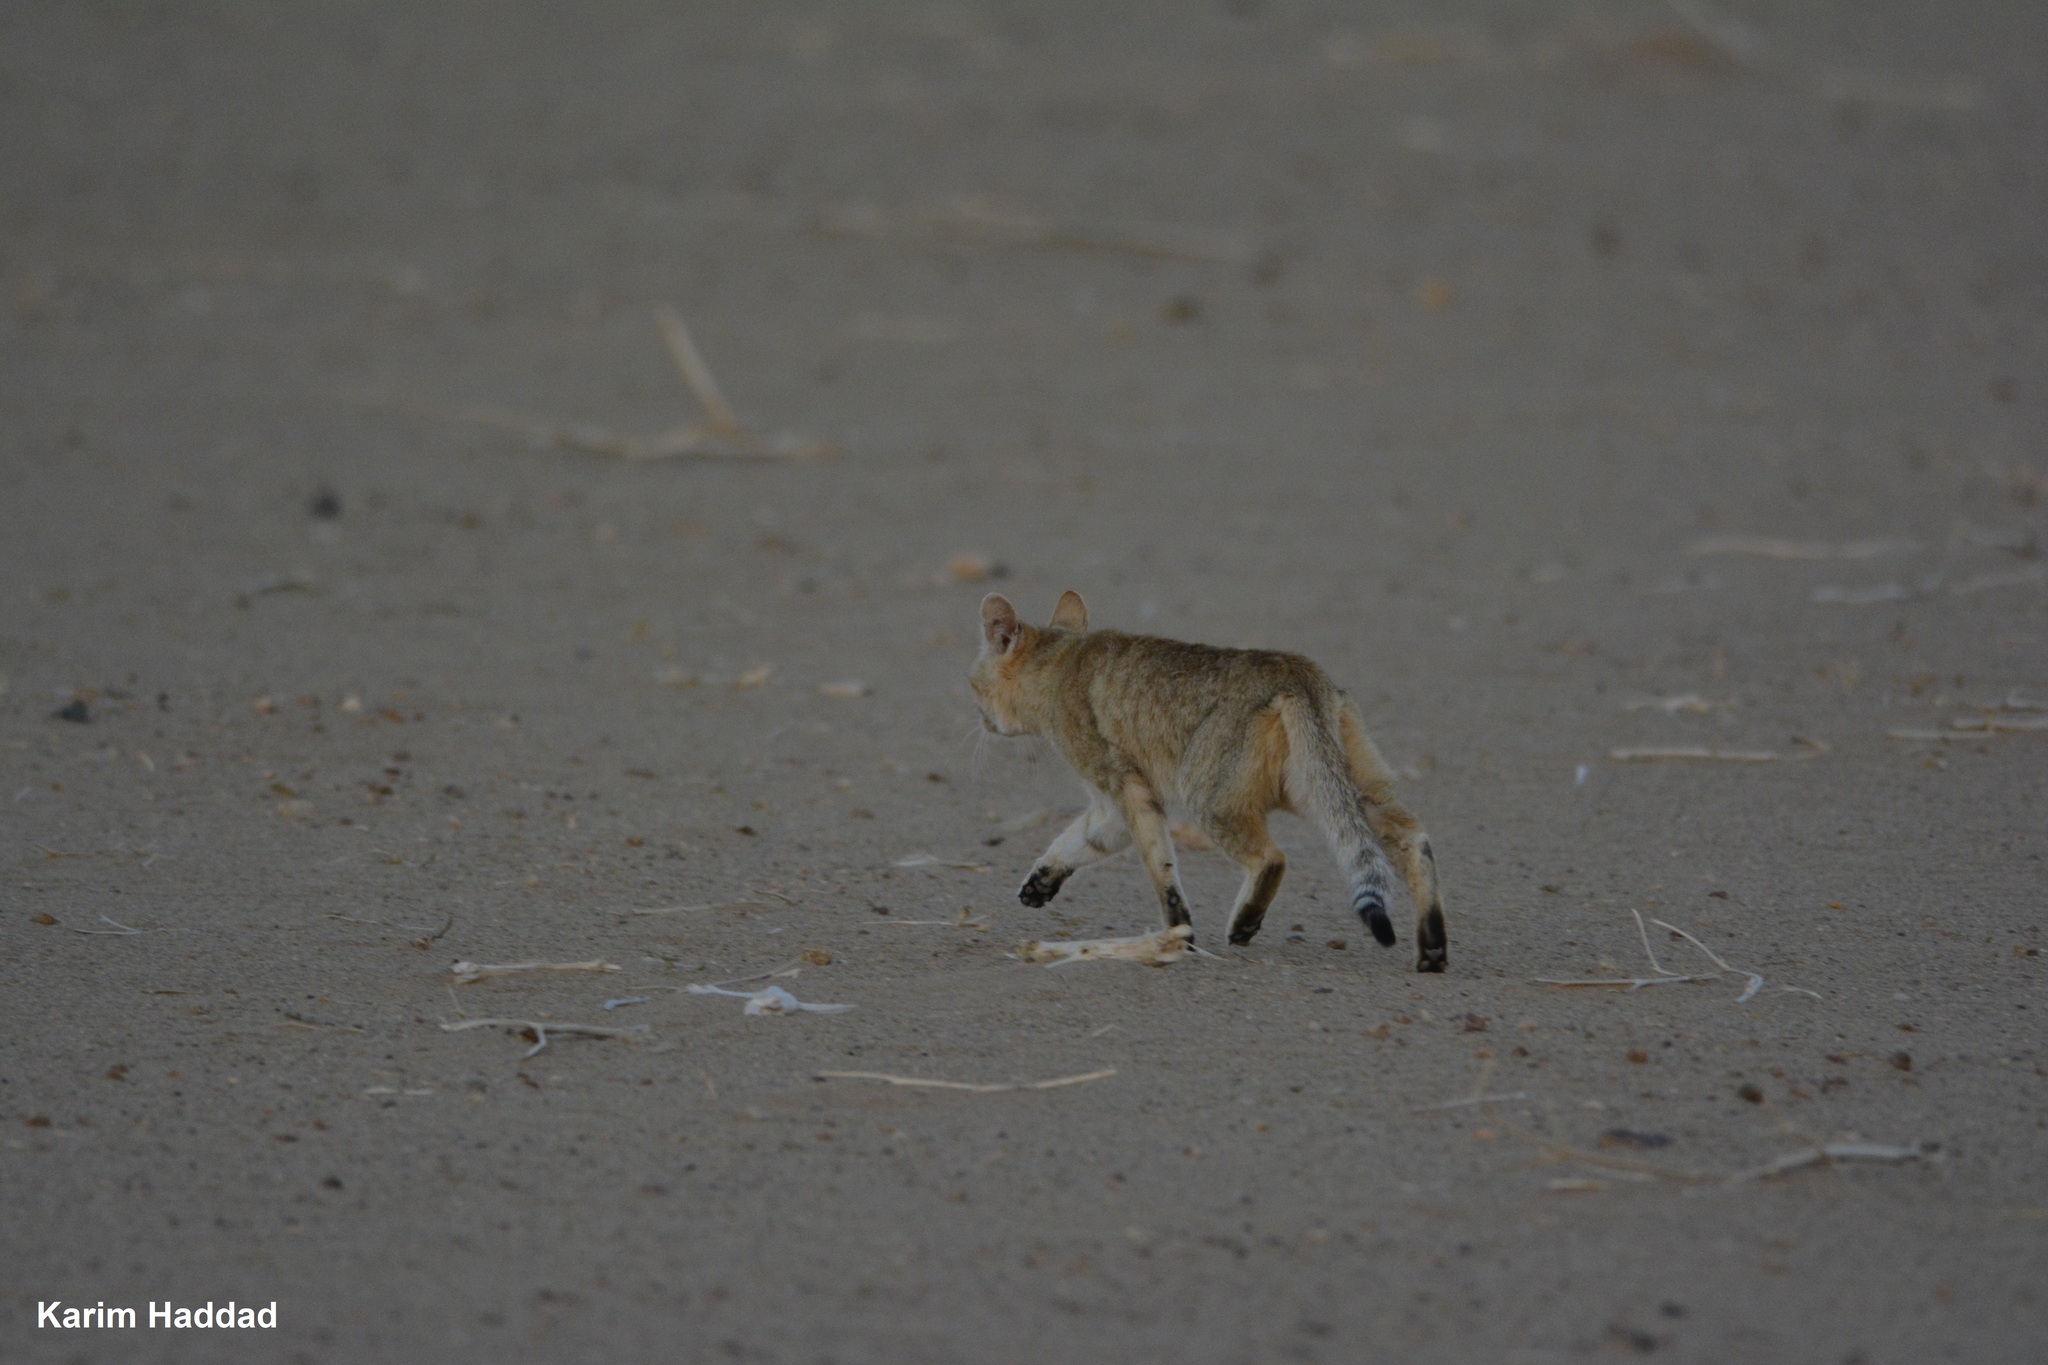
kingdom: Animalia
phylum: Chordata
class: Mammalia
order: Carnivora
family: Felidae
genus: Felis
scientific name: Felis silvestris
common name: Wildcat
